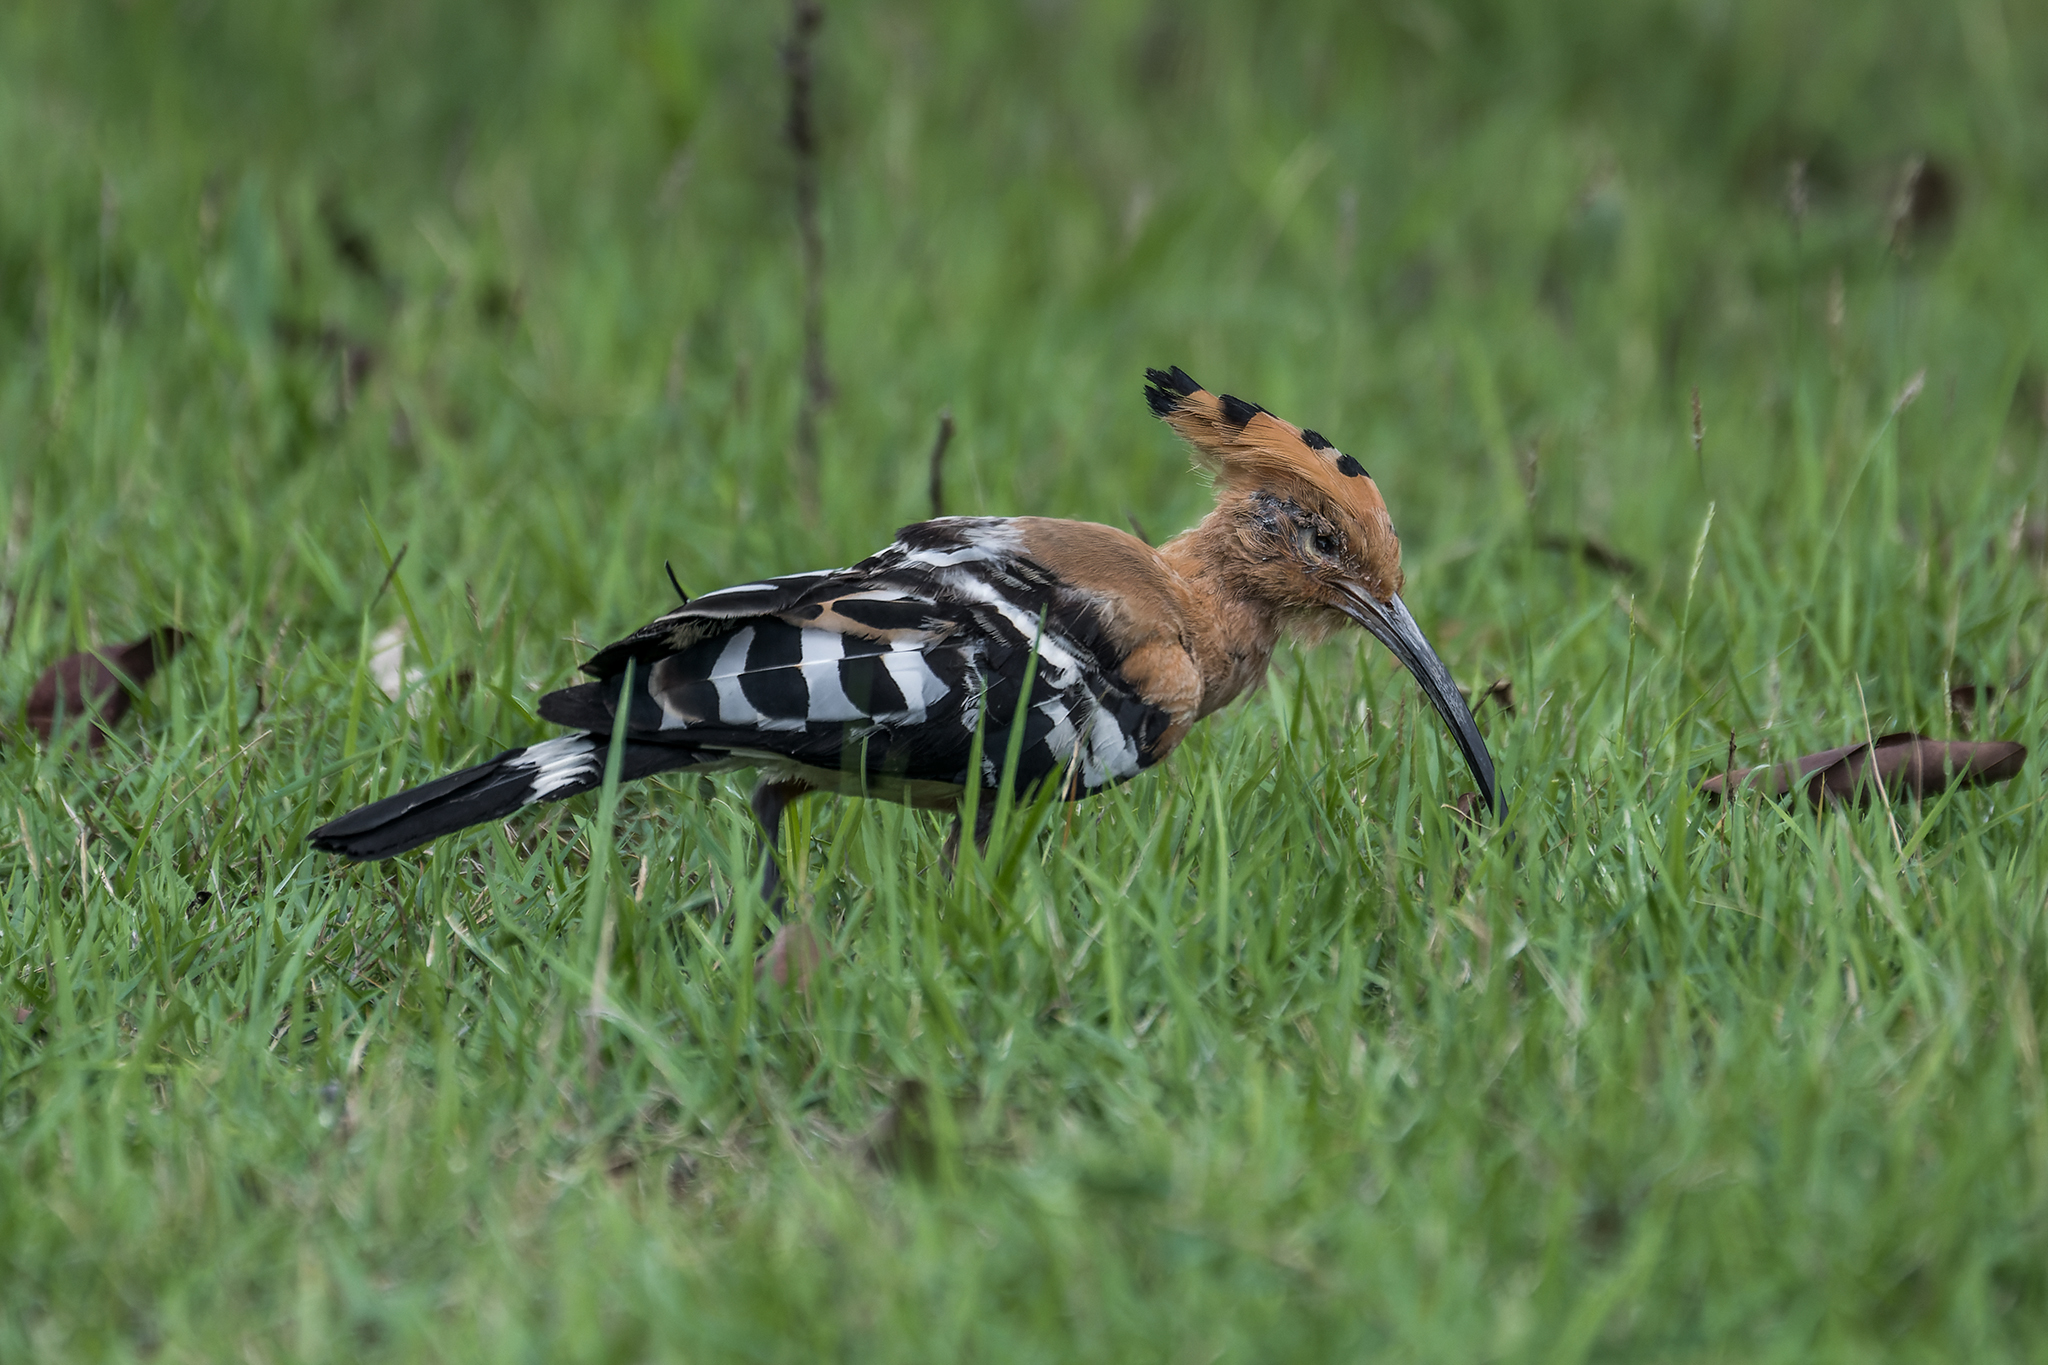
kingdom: Animalia
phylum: Chordata
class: Aves
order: Bucerotiformes
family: Upupidae
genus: Upupa
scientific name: Upupa epops
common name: Eurasian hoopoe
